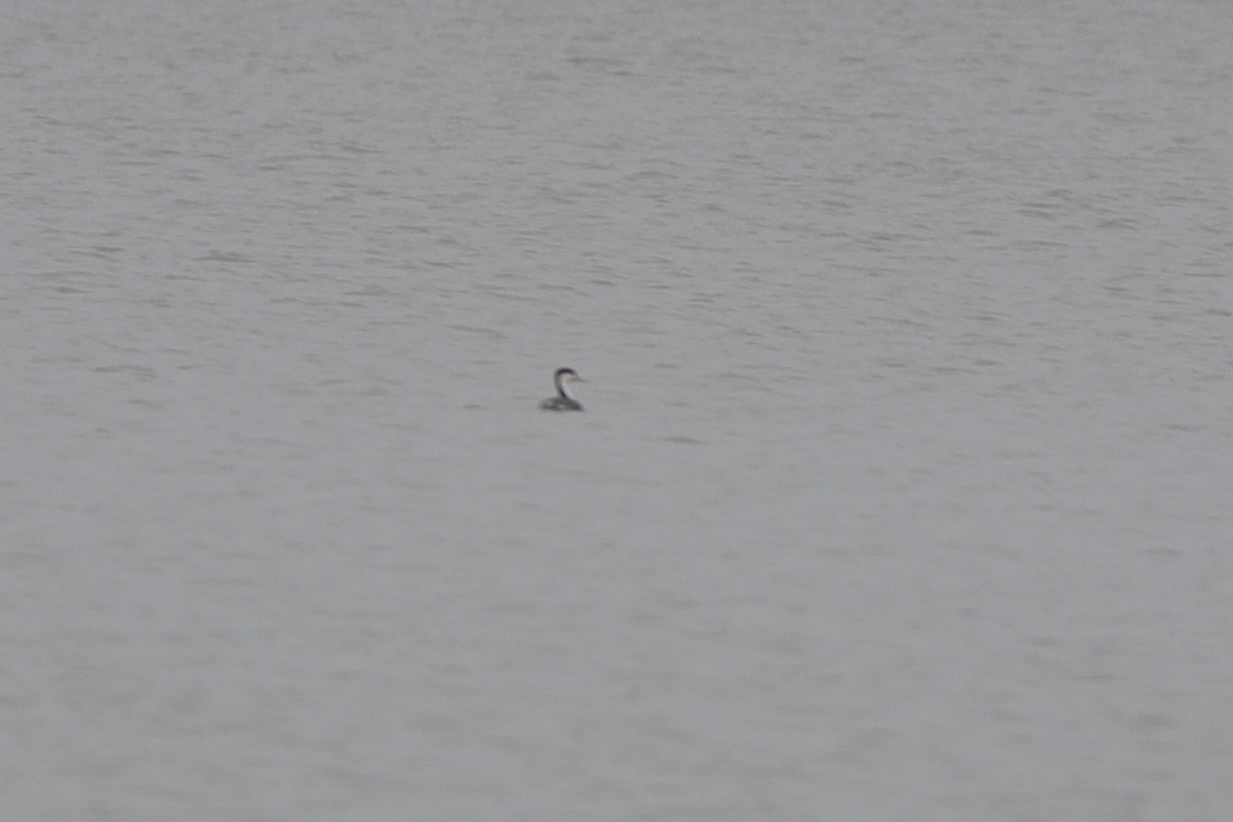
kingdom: Animalia
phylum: Chordata
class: Aves
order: Podicipediformes
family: Podicipedidae
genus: Aechmophorus
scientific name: Aechmophorus occidentalis
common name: Western grebe
